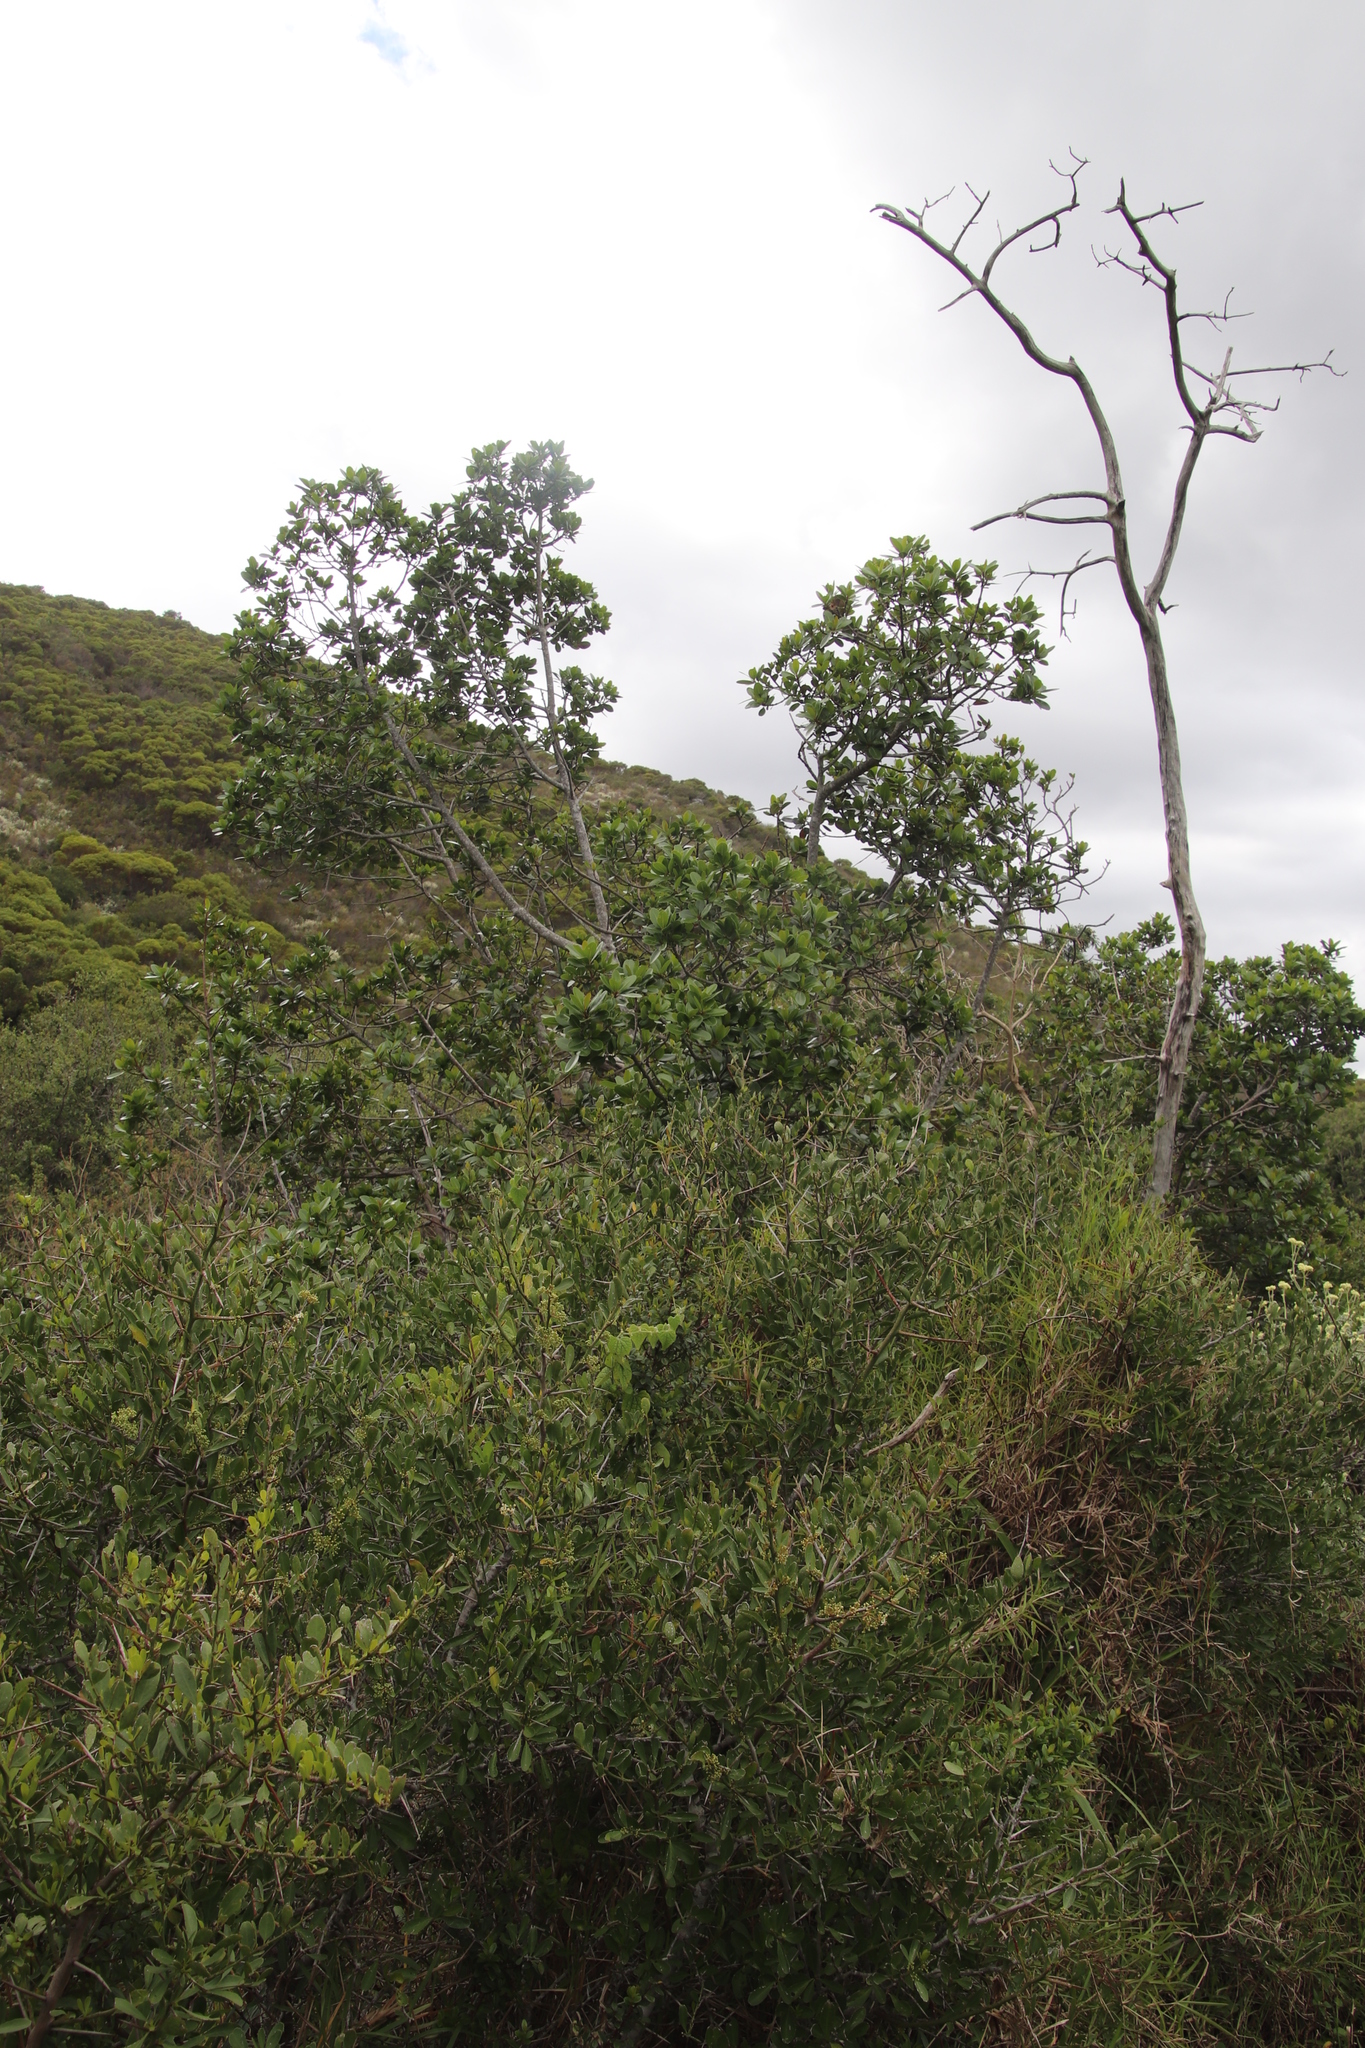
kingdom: Plantae
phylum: Tracheophyta
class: Magnoliopsida
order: Ericales
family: Sapotaceae
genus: Sideroxylon
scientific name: Sideroxylon inerme
